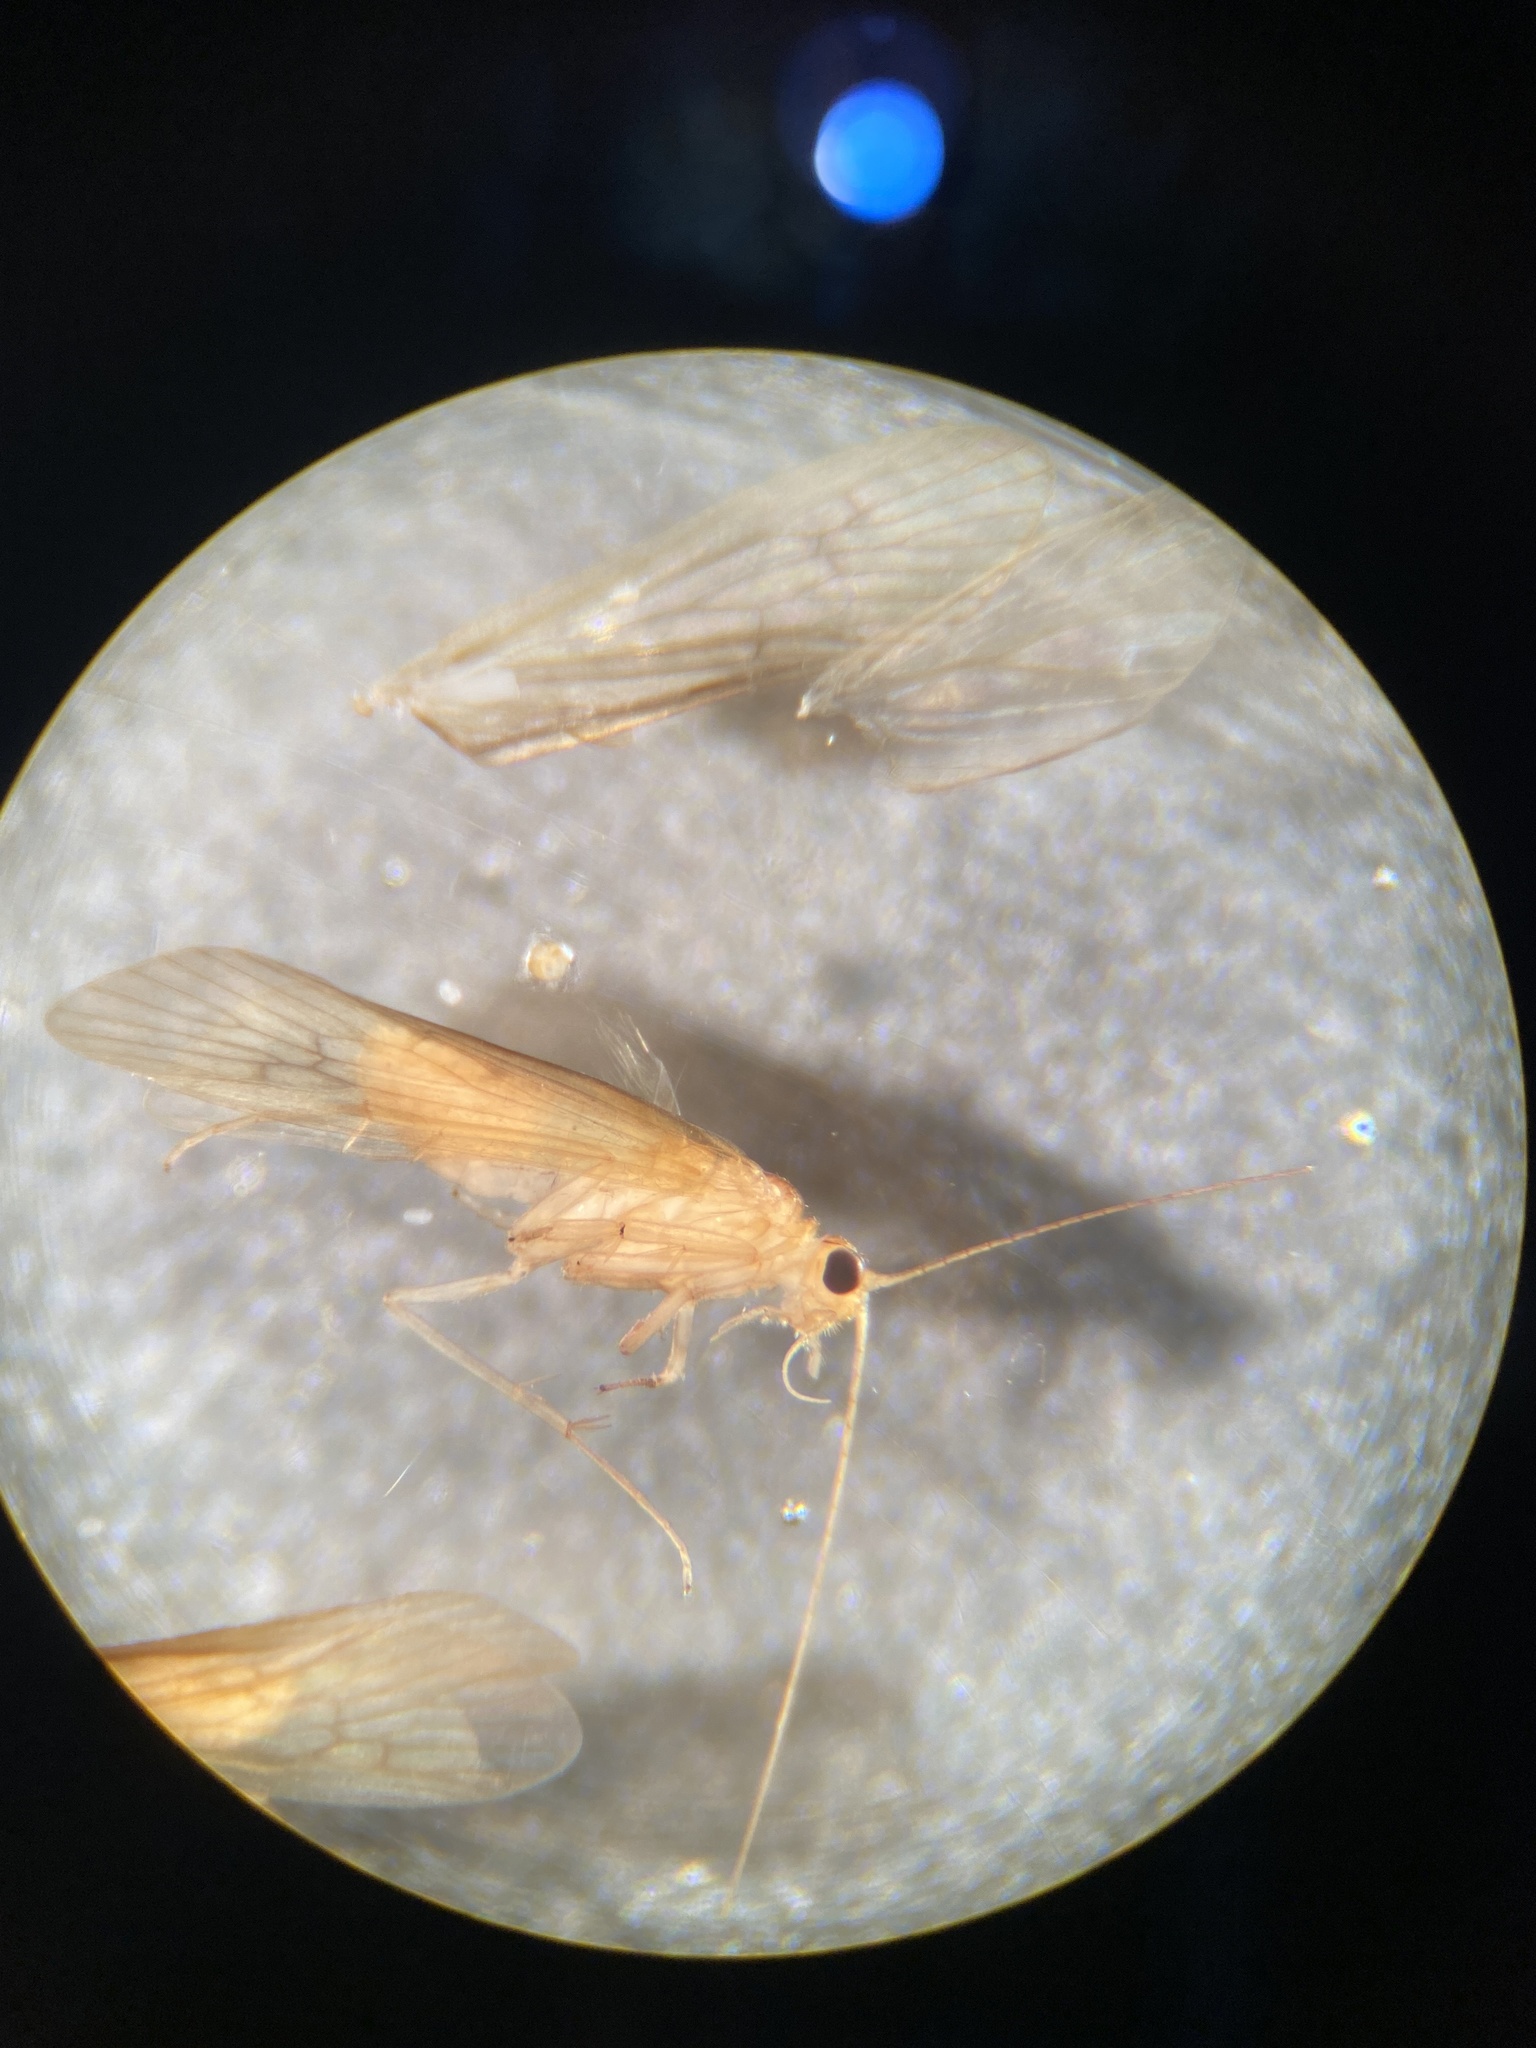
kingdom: Animalia
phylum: Arthropoda
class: Insecta
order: Trichoptera
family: Hydropsychidae
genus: Potamyia
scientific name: Potamyia flava
